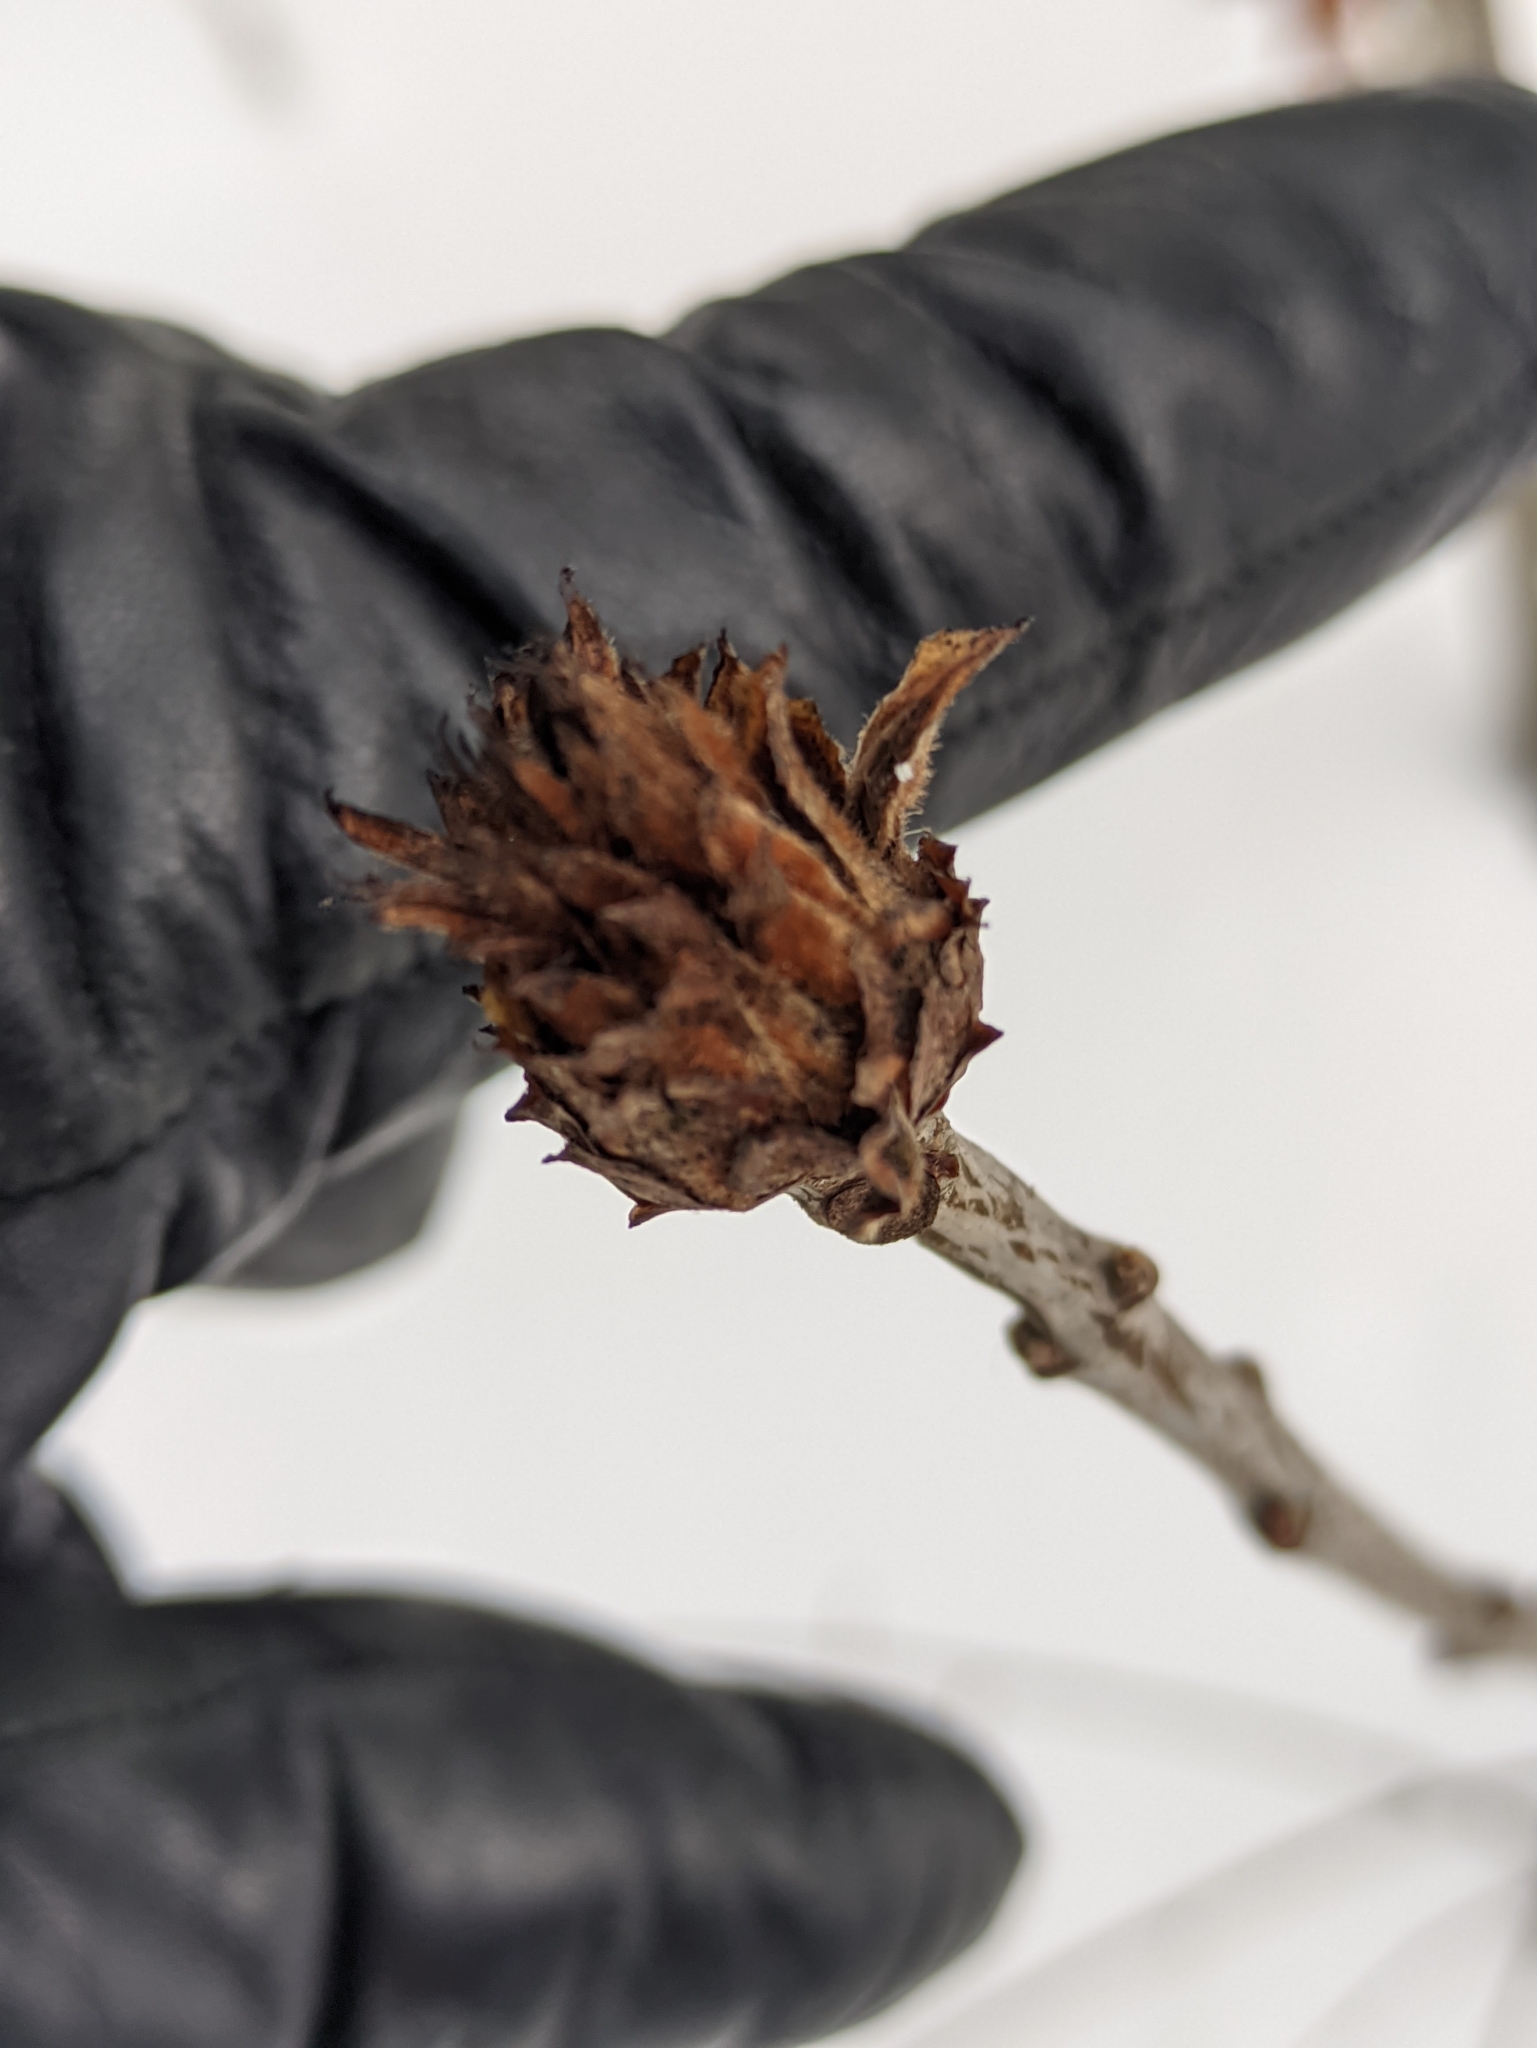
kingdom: Animalia
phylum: Arthropoda
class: Insecta
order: Hymenoptera
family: Cynipidae
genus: Andricus
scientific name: Andricus foecundatrix
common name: Artichoke gall
